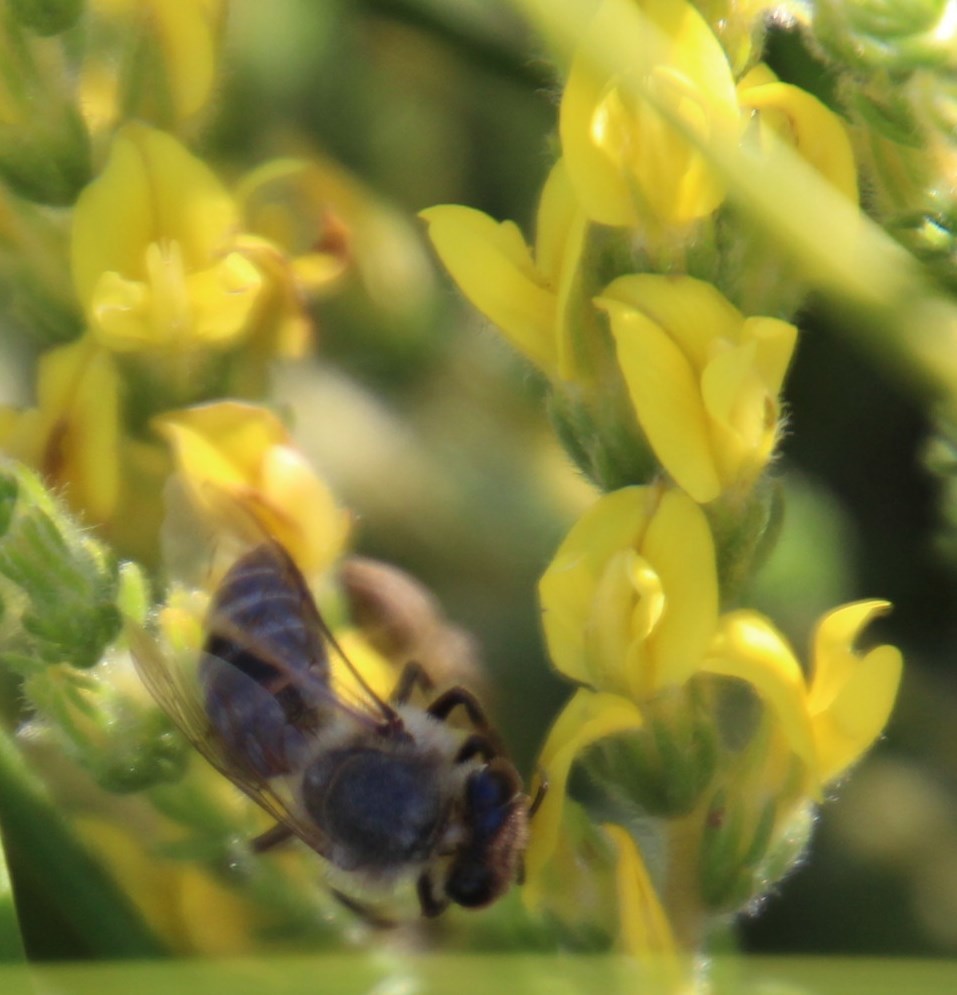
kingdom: Animalia
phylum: Arthropoda
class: Insecta
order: Hymenoptera
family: Apidae
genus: Apis
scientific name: Apis mellifera
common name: Honey bee
